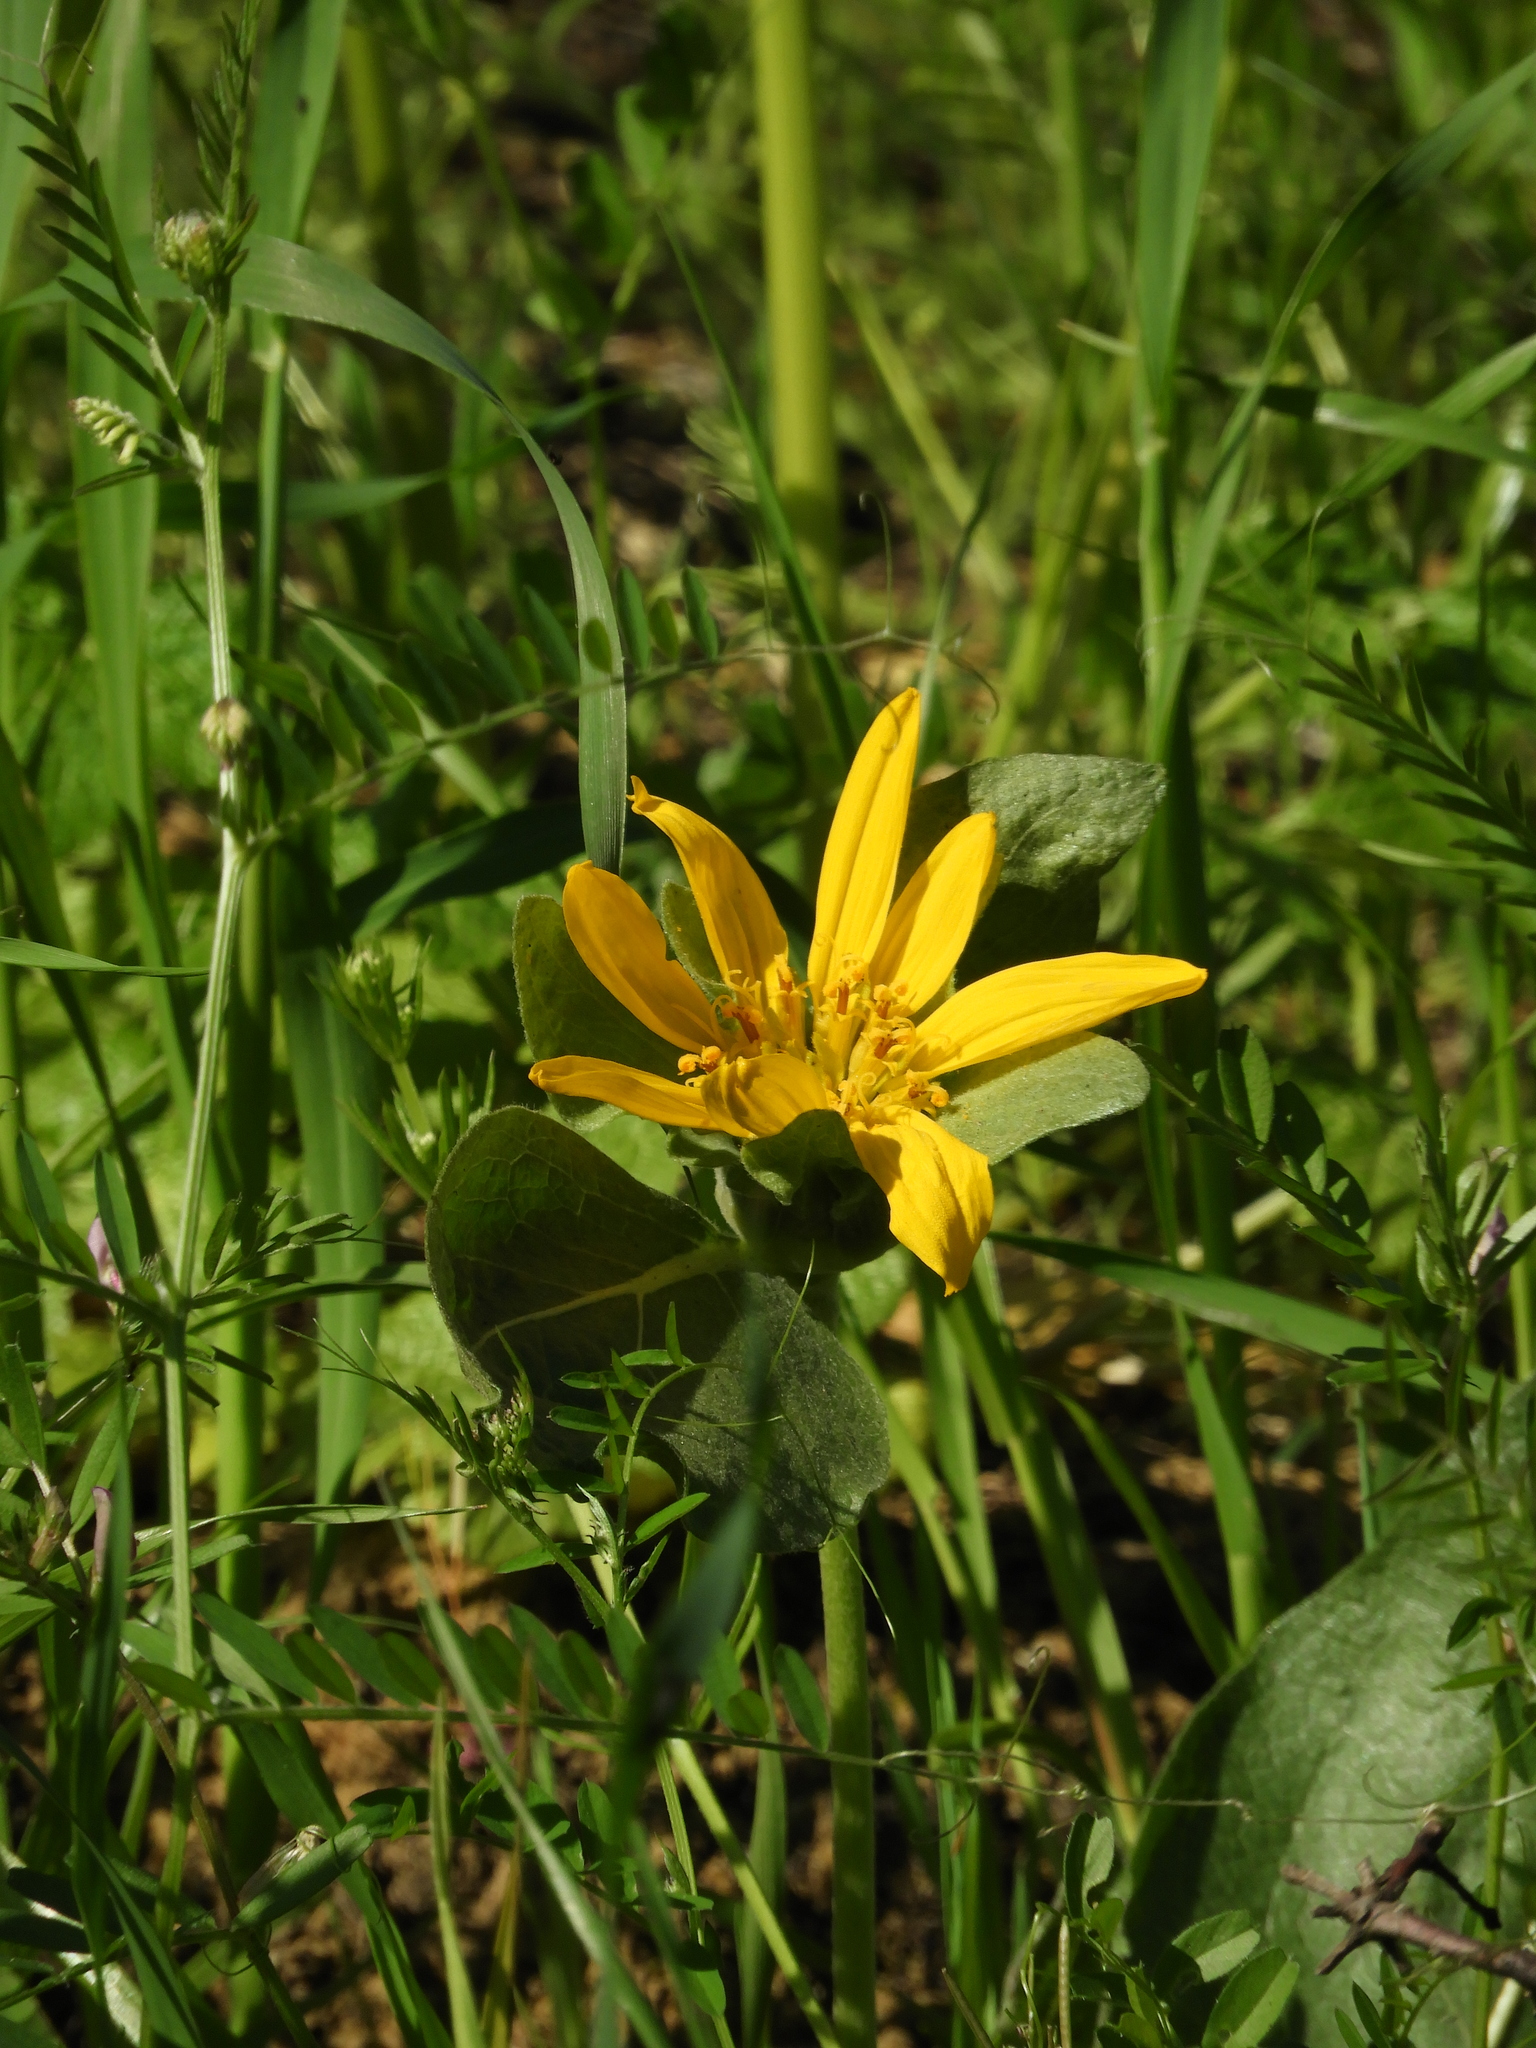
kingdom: Plantae
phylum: Tracheophyta
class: Magnoliopsida
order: Asterales
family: Asteraceae
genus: Wyethia
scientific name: Wyethia glabra
